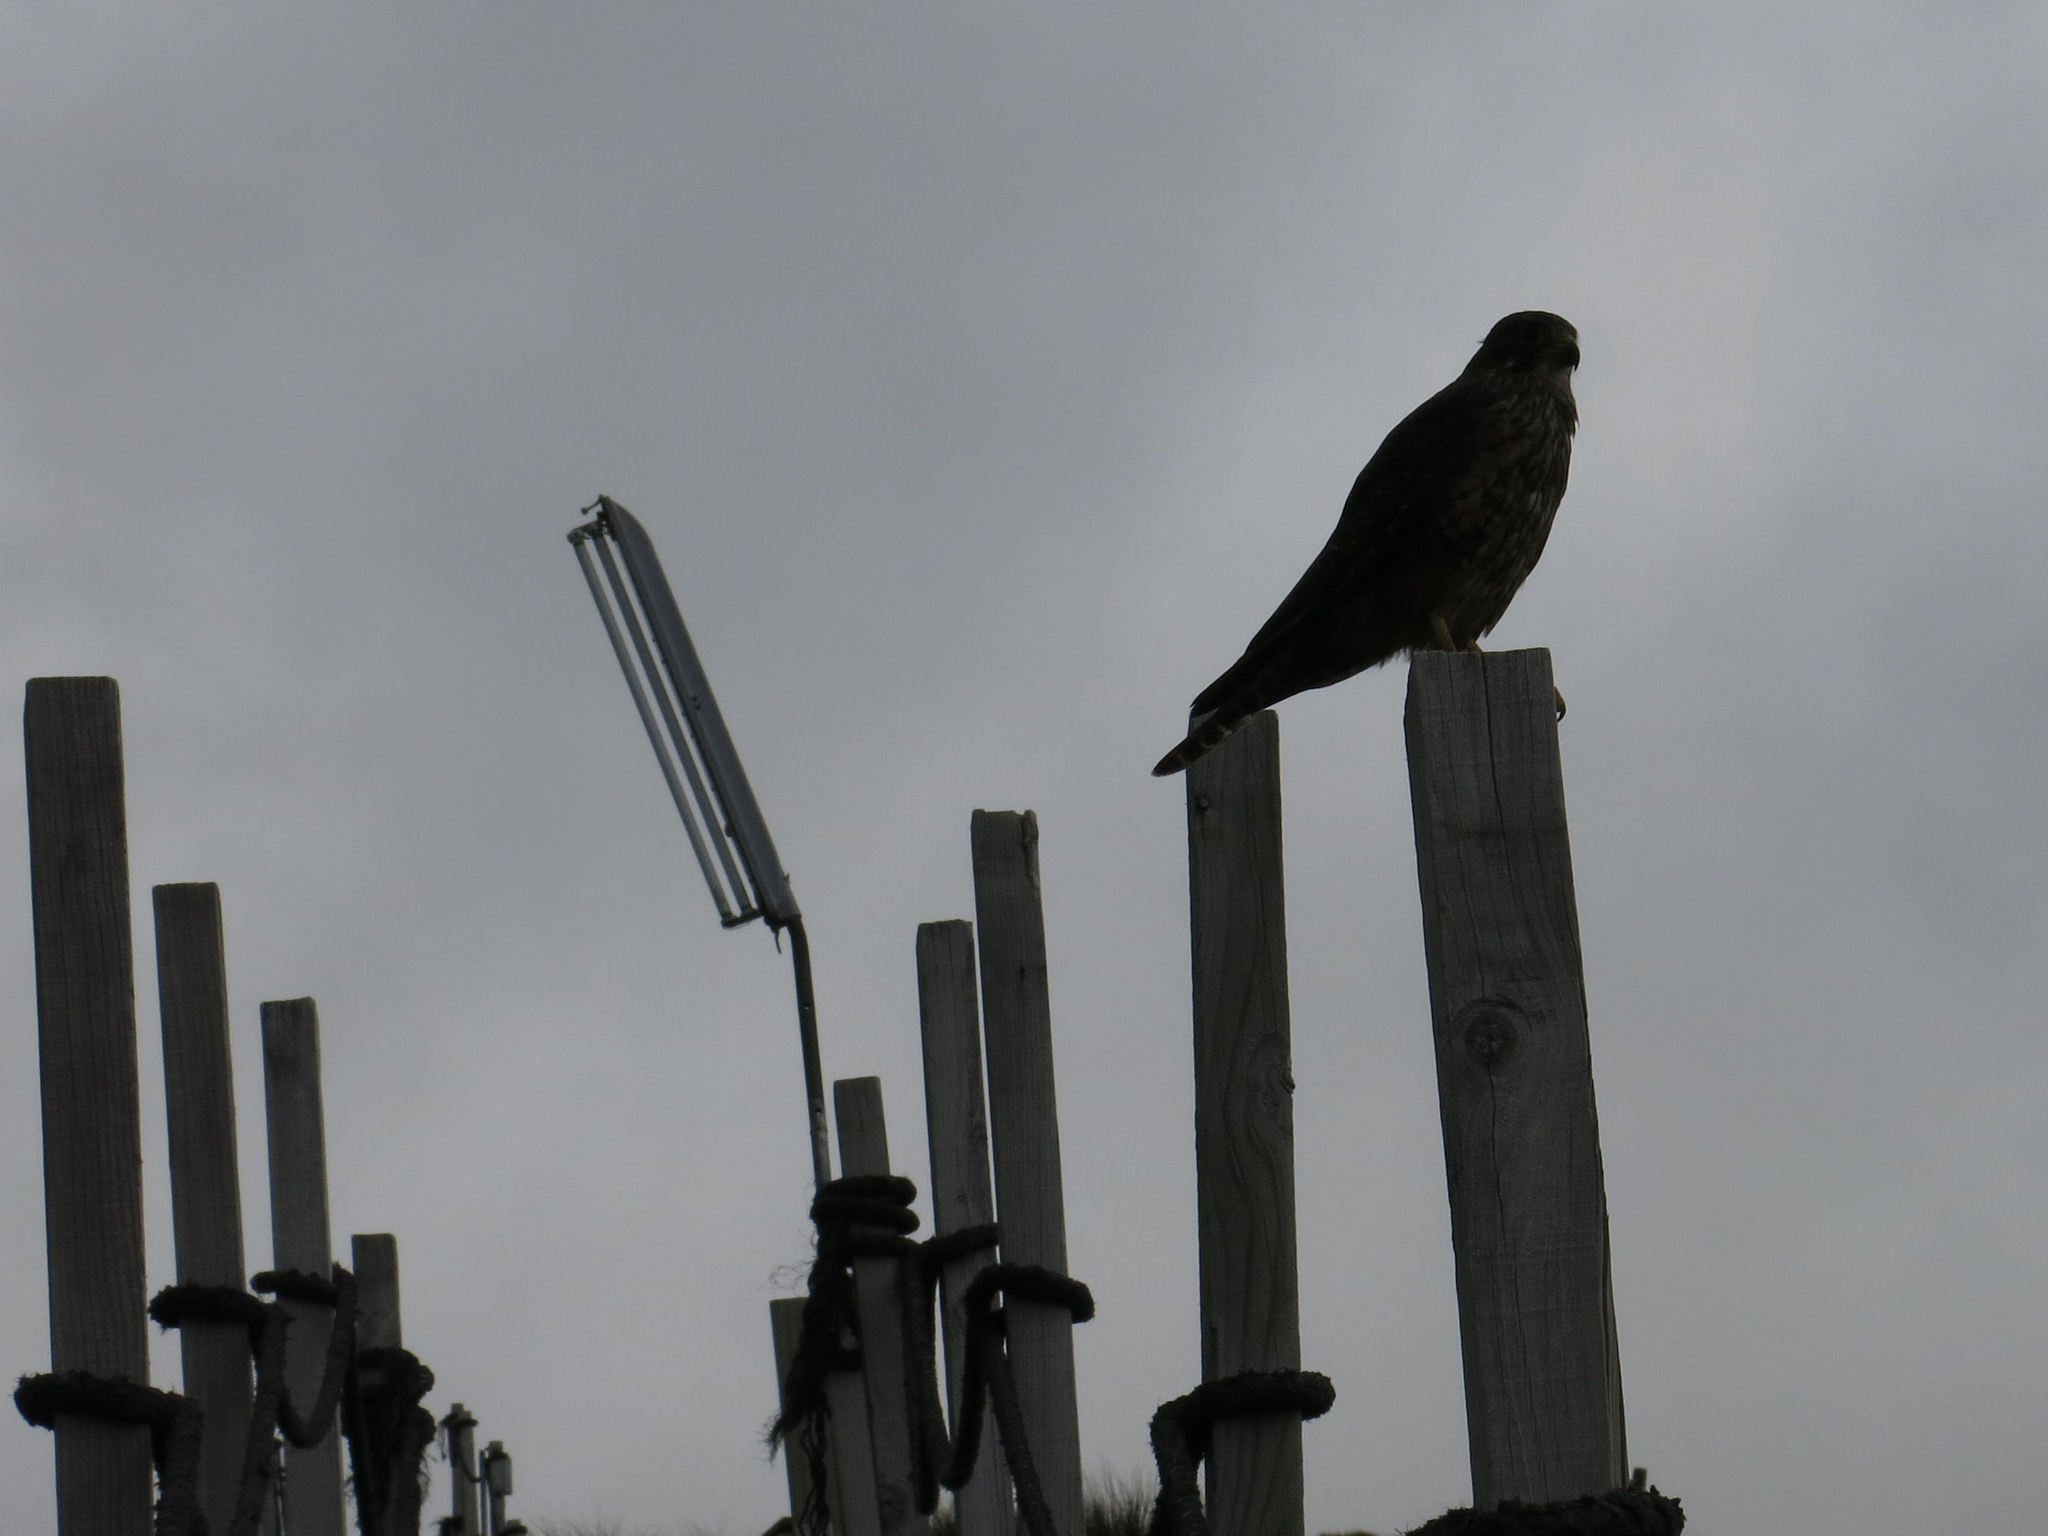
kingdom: Animalia
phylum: Chordata
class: Aves
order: Falconiformes
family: Falconidae
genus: Falco
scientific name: Falco novaeseelandiae
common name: New zealand falcon
